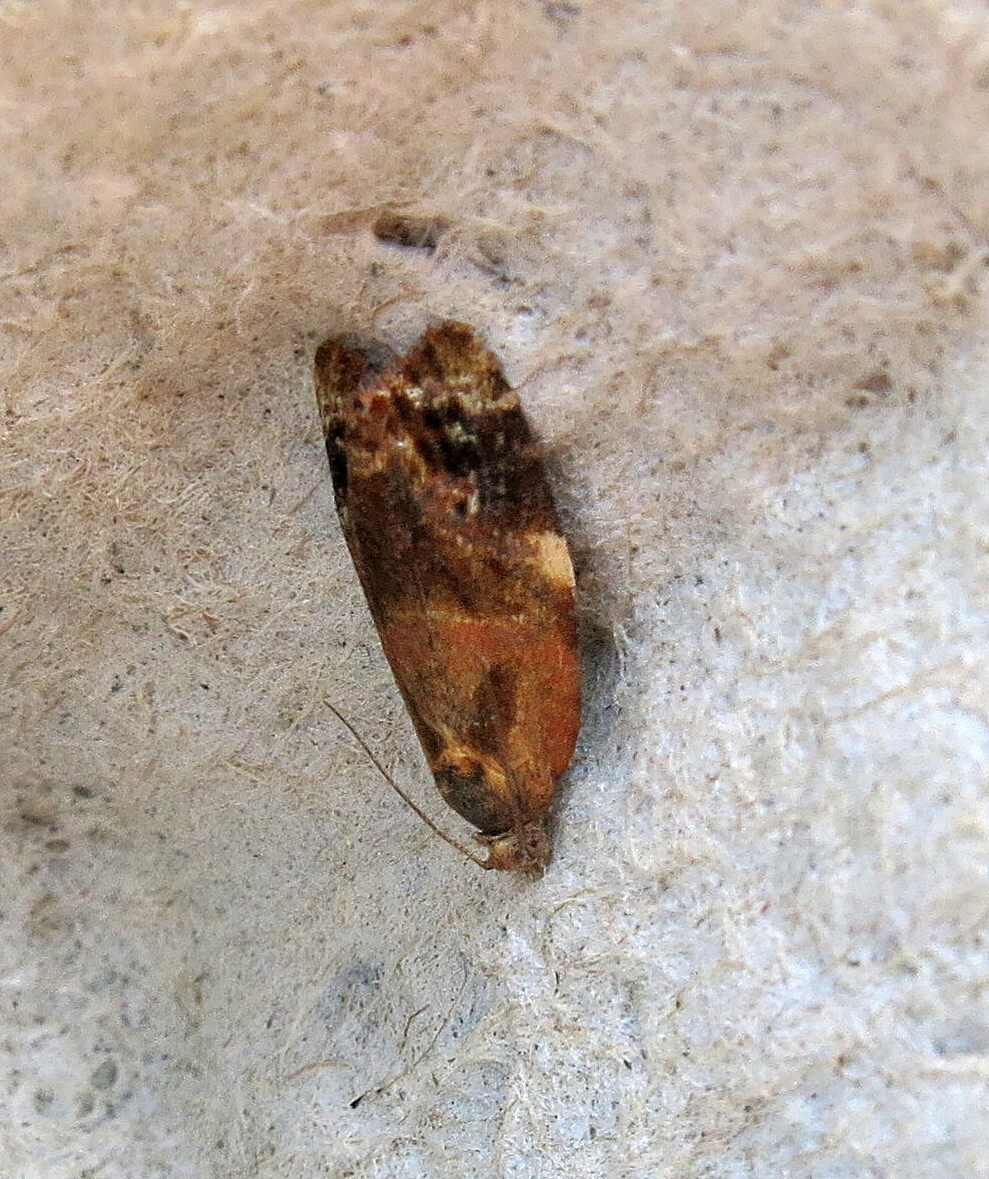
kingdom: Animalia
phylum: Arthropoda
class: Insecta
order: Lepidoptera
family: Tortricidae
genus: Ditula
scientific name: Ditula angustiorana
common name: Red-barred tortrix
